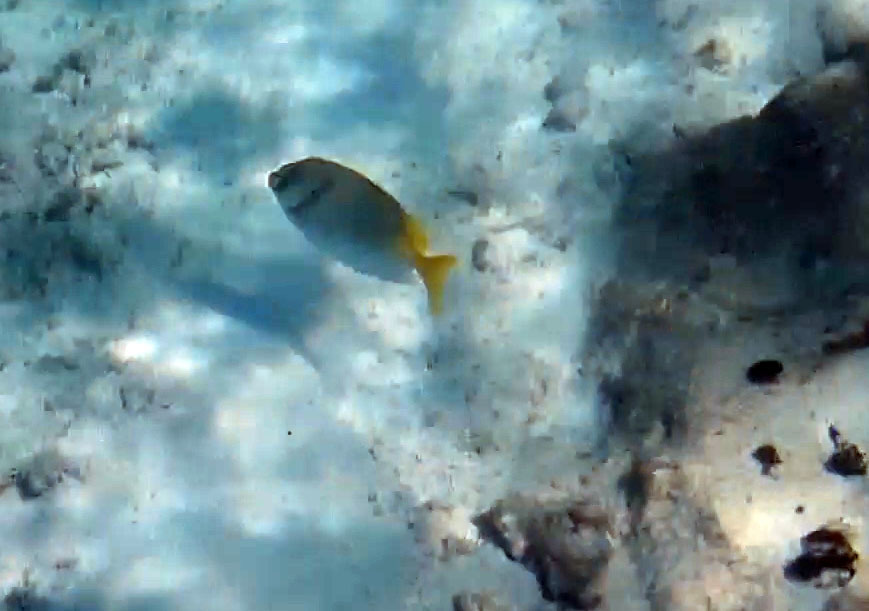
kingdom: Animalia
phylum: Chordata
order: Perciformes
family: Siganidae
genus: Siganus
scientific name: Siganus doliatus
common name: Barred spinefoot
